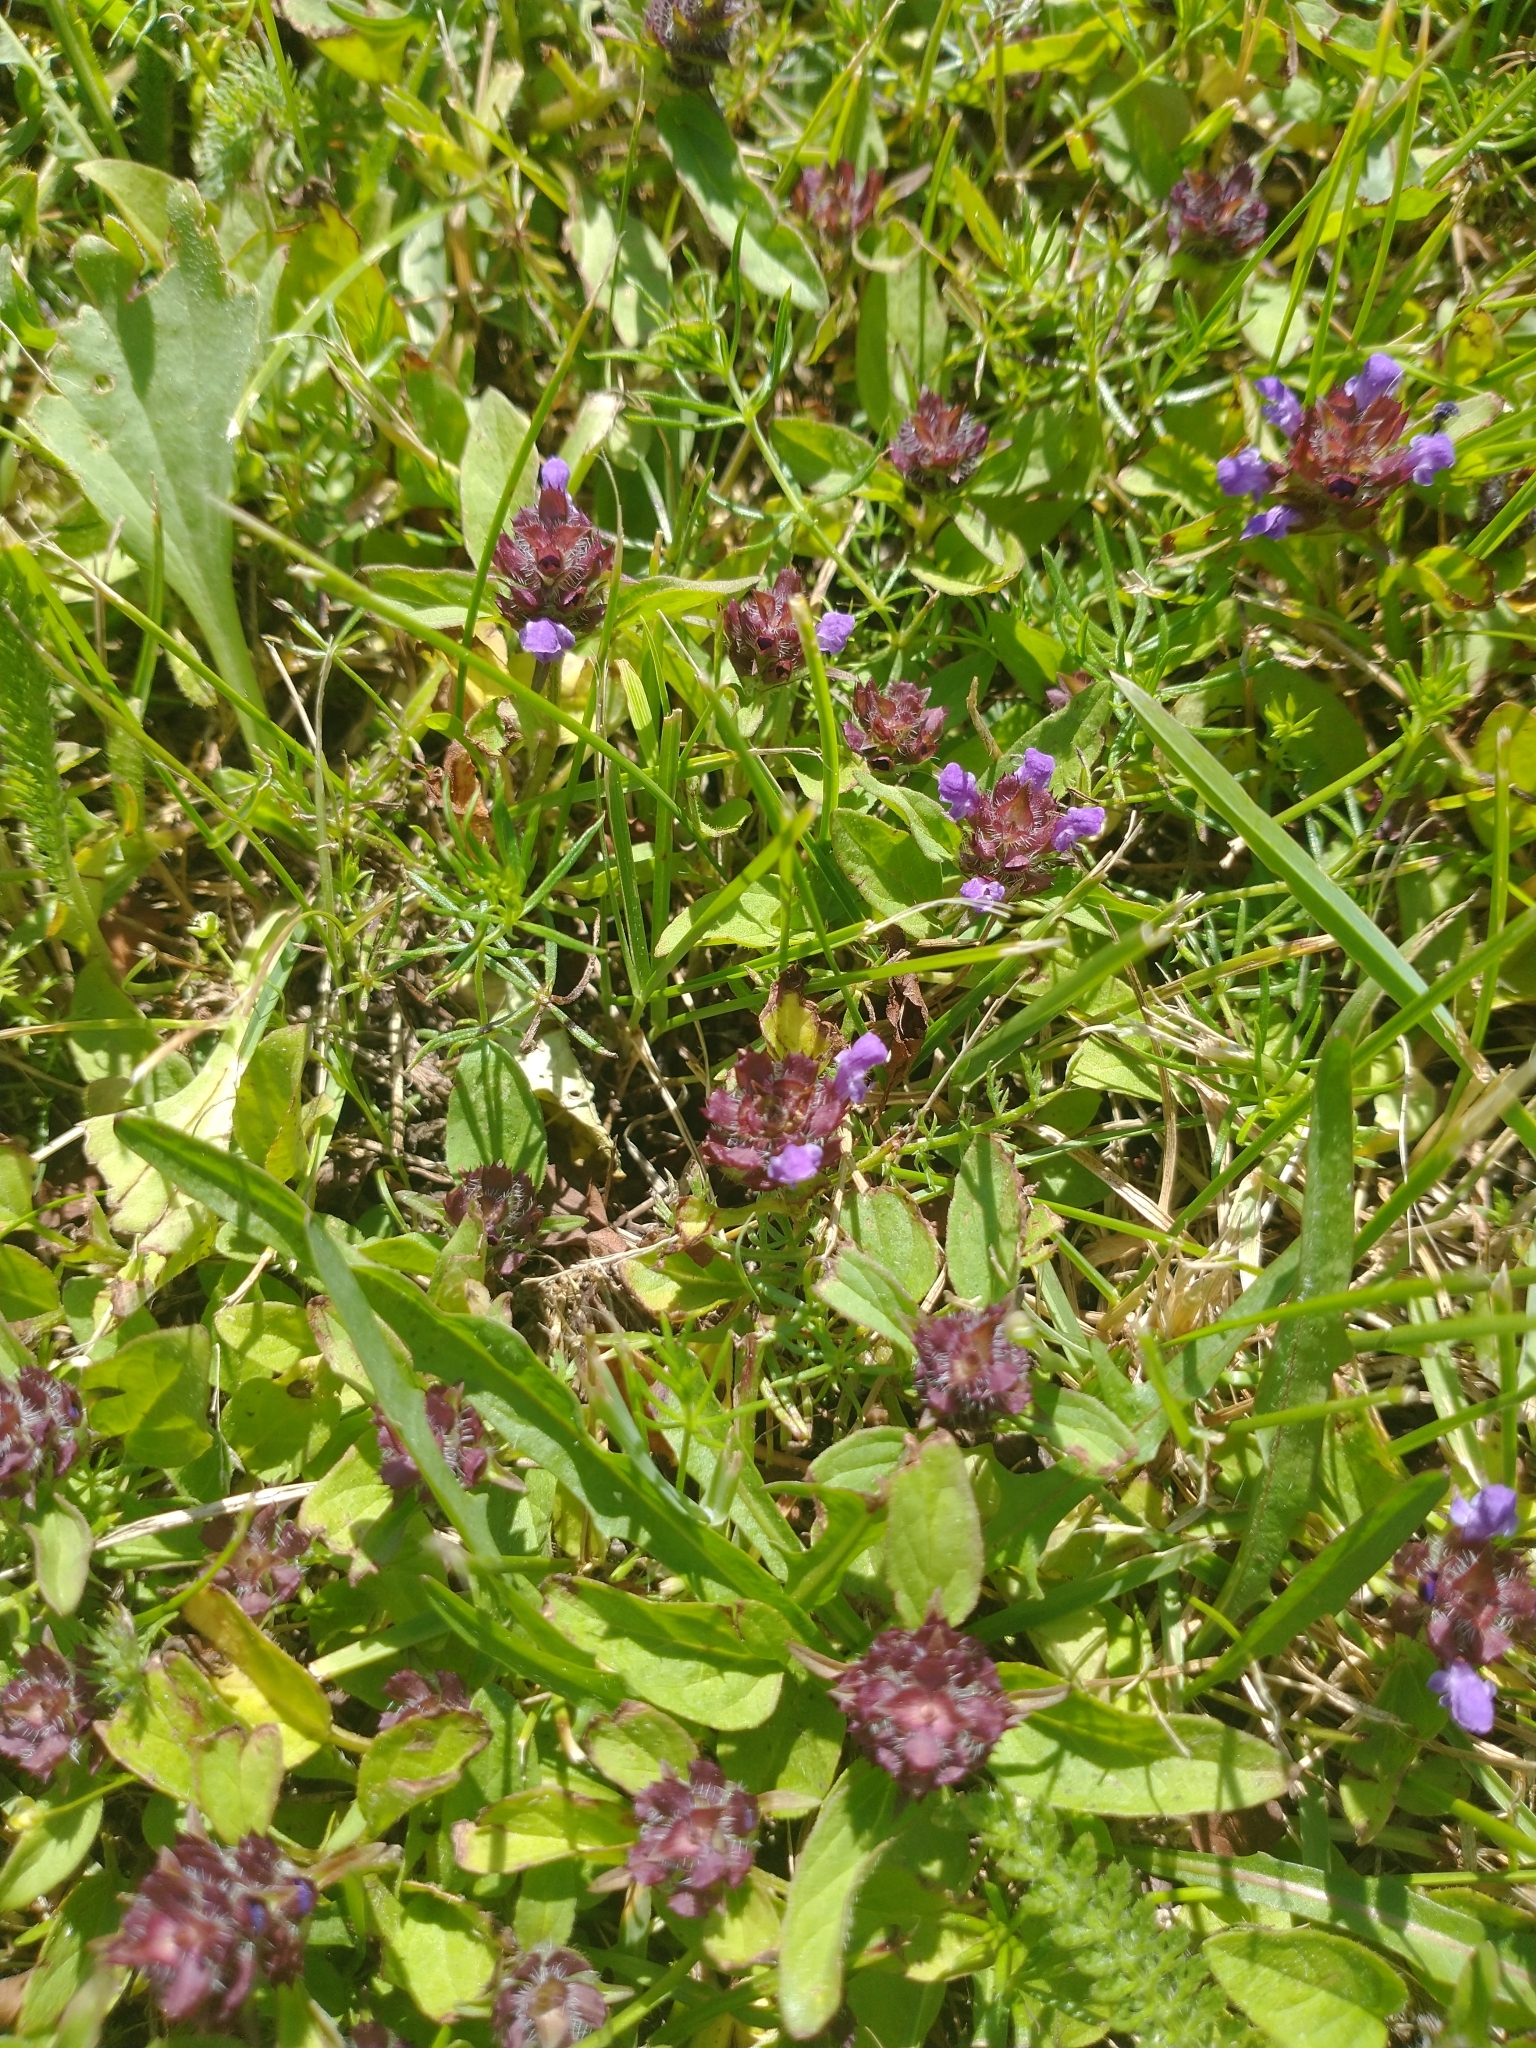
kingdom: Plantae
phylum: Tracheophyta
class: Magnoliopsida
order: Lamiales
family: Lamiaceae
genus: Prunella
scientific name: Prunella vulgaris
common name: Heal-all
